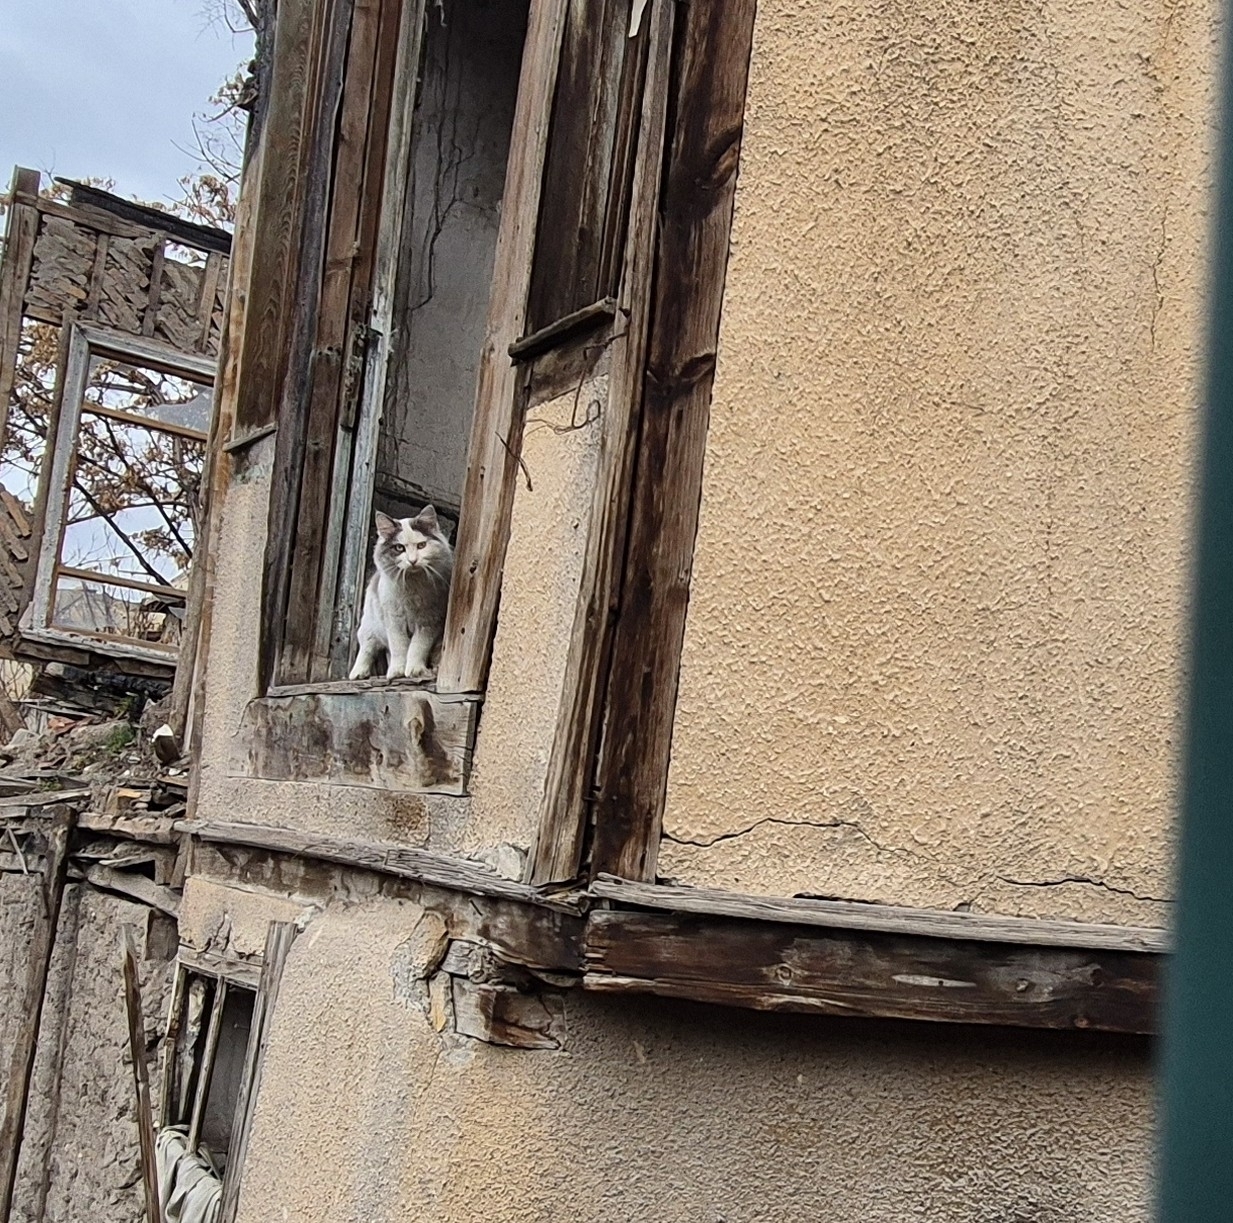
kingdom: Animalia
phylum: Chordata
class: Mammalia
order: Carnivora
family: Felidae
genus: Felis
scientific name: Felis catus
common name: Domestic cat
